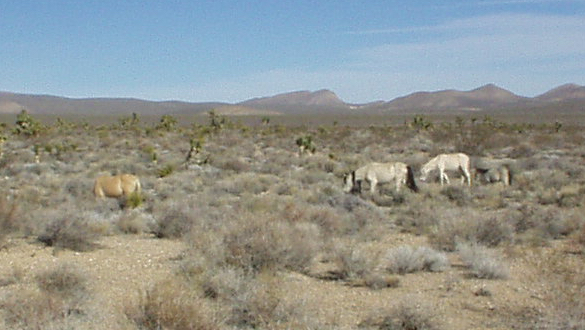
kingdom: Animalia
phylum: Chordata
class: Mammalia
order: Perissodactyla
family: Equidae
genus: Equus
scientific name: Equus caballus
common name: Horse
